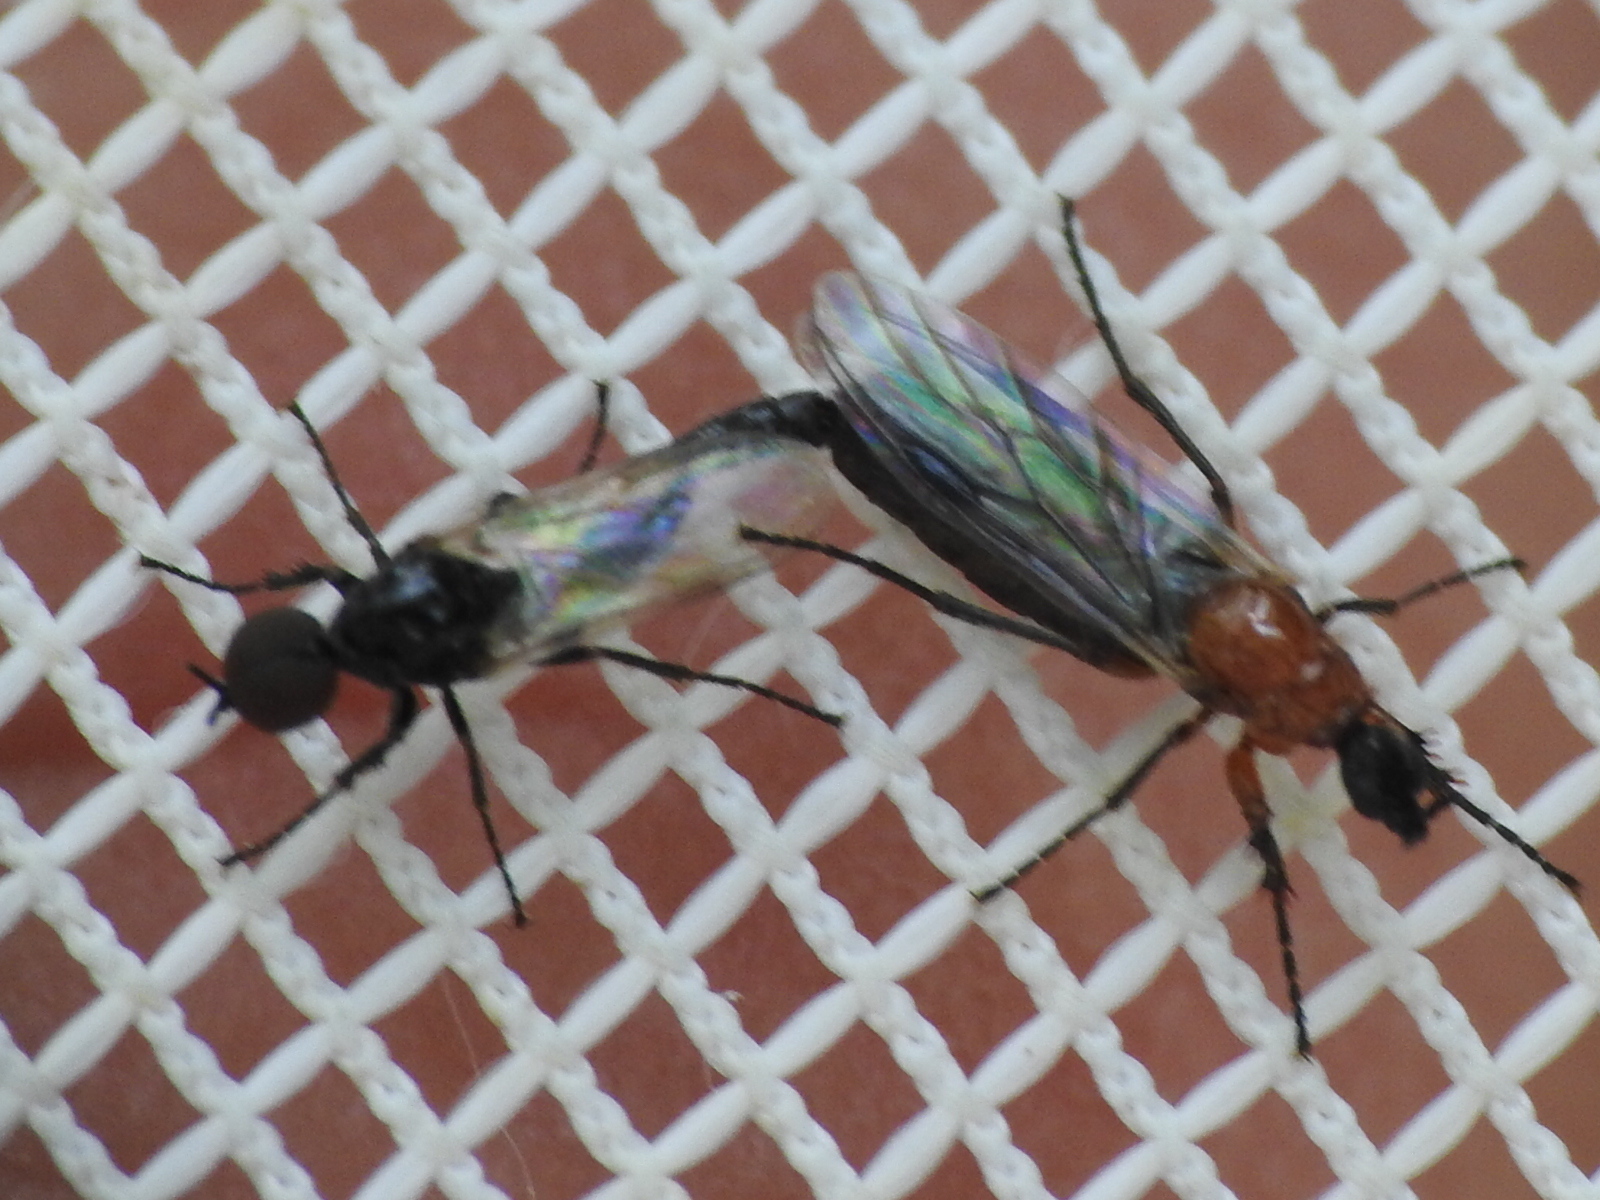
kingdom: Animalia
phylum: Arthropoda
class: Insecta
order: Diptera
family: Bibionidae
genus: Dilophus
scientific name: Dilophus tibialis
